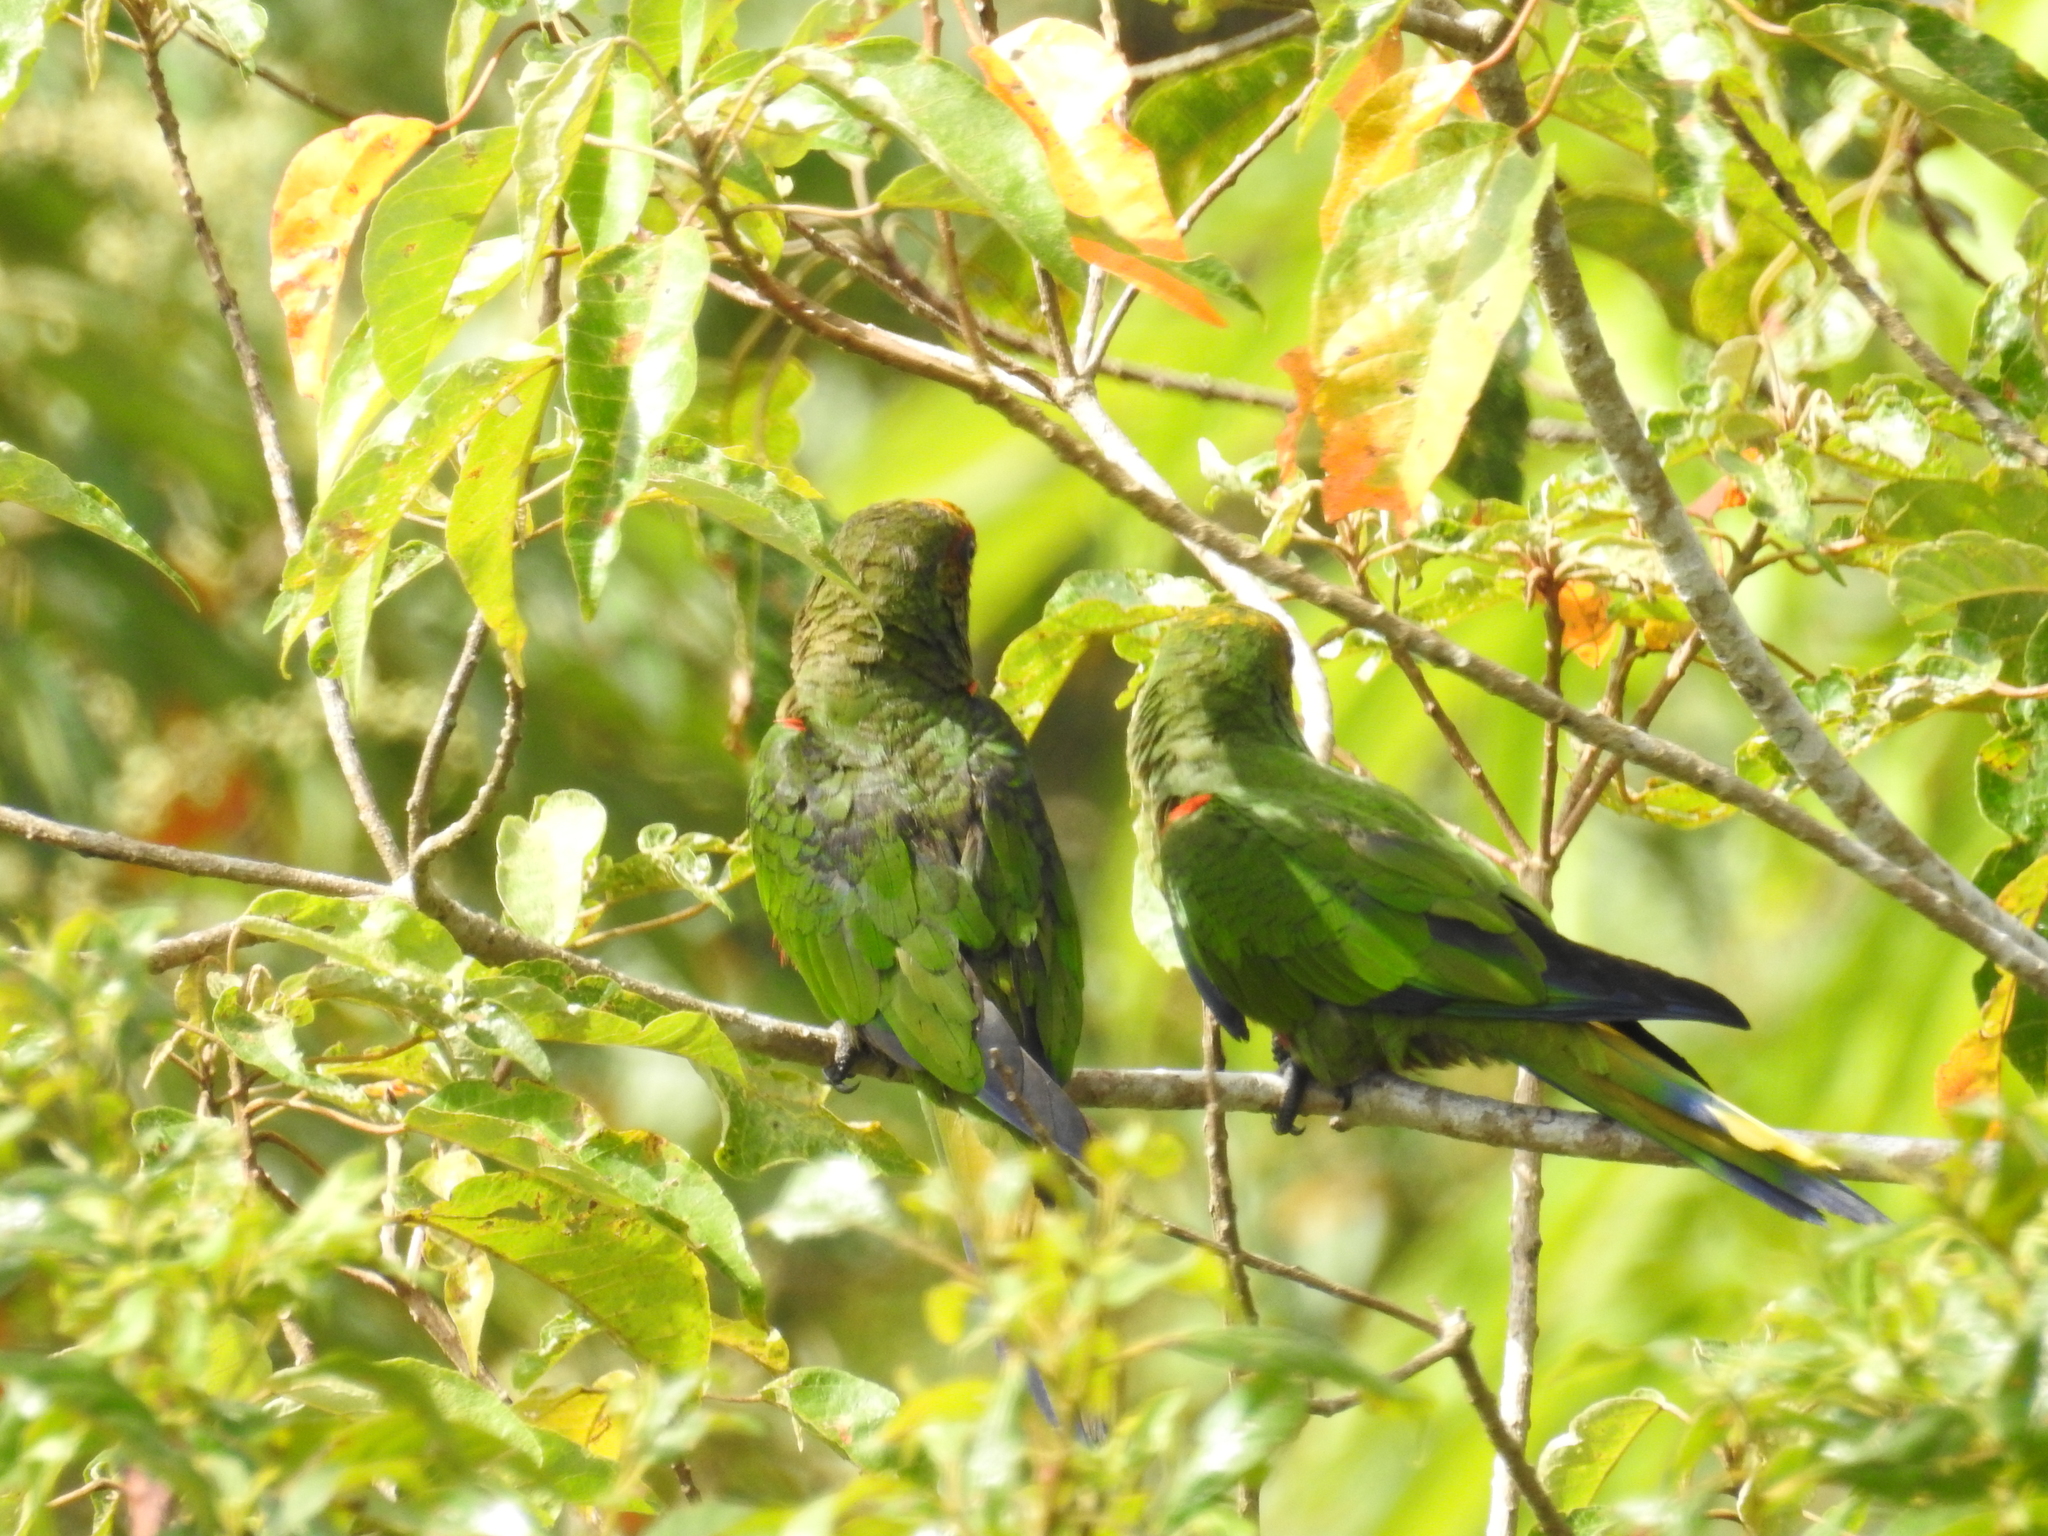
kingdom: Animalia
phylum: Chordata
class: Aves
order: Psittaciformes
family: Psittacidae
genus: Aratinga
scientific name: Aratinga auricapillus
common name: Golden-capped parakeet
